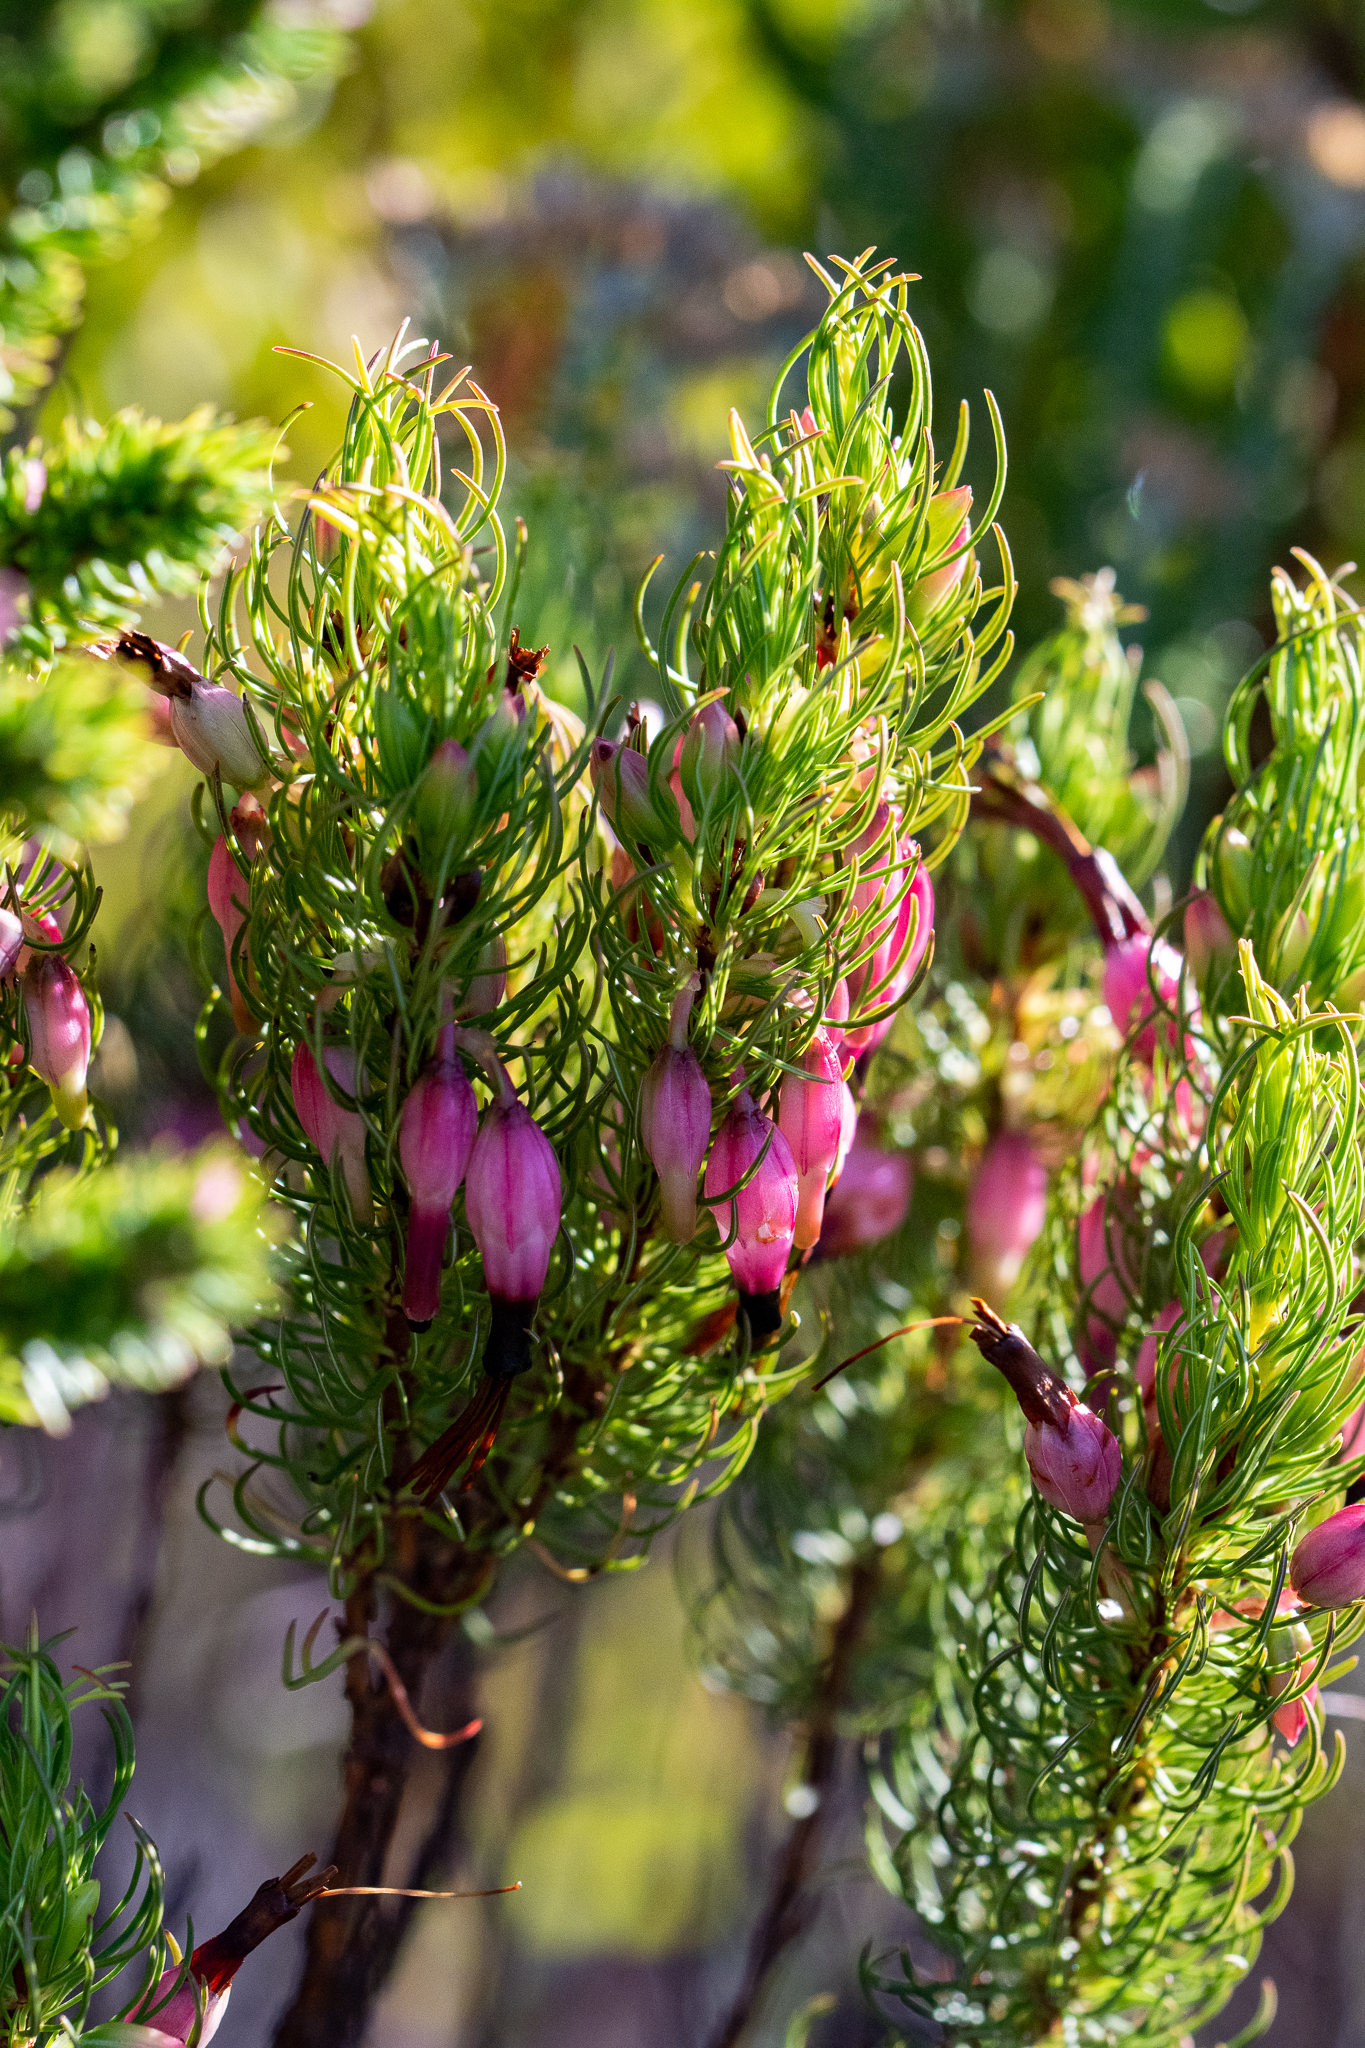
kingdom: Plantae
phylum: Tracheophyta
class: Magnoliopsida
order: Ericales
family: Ericaceae
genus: Erica
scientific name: Erica plukenetii
